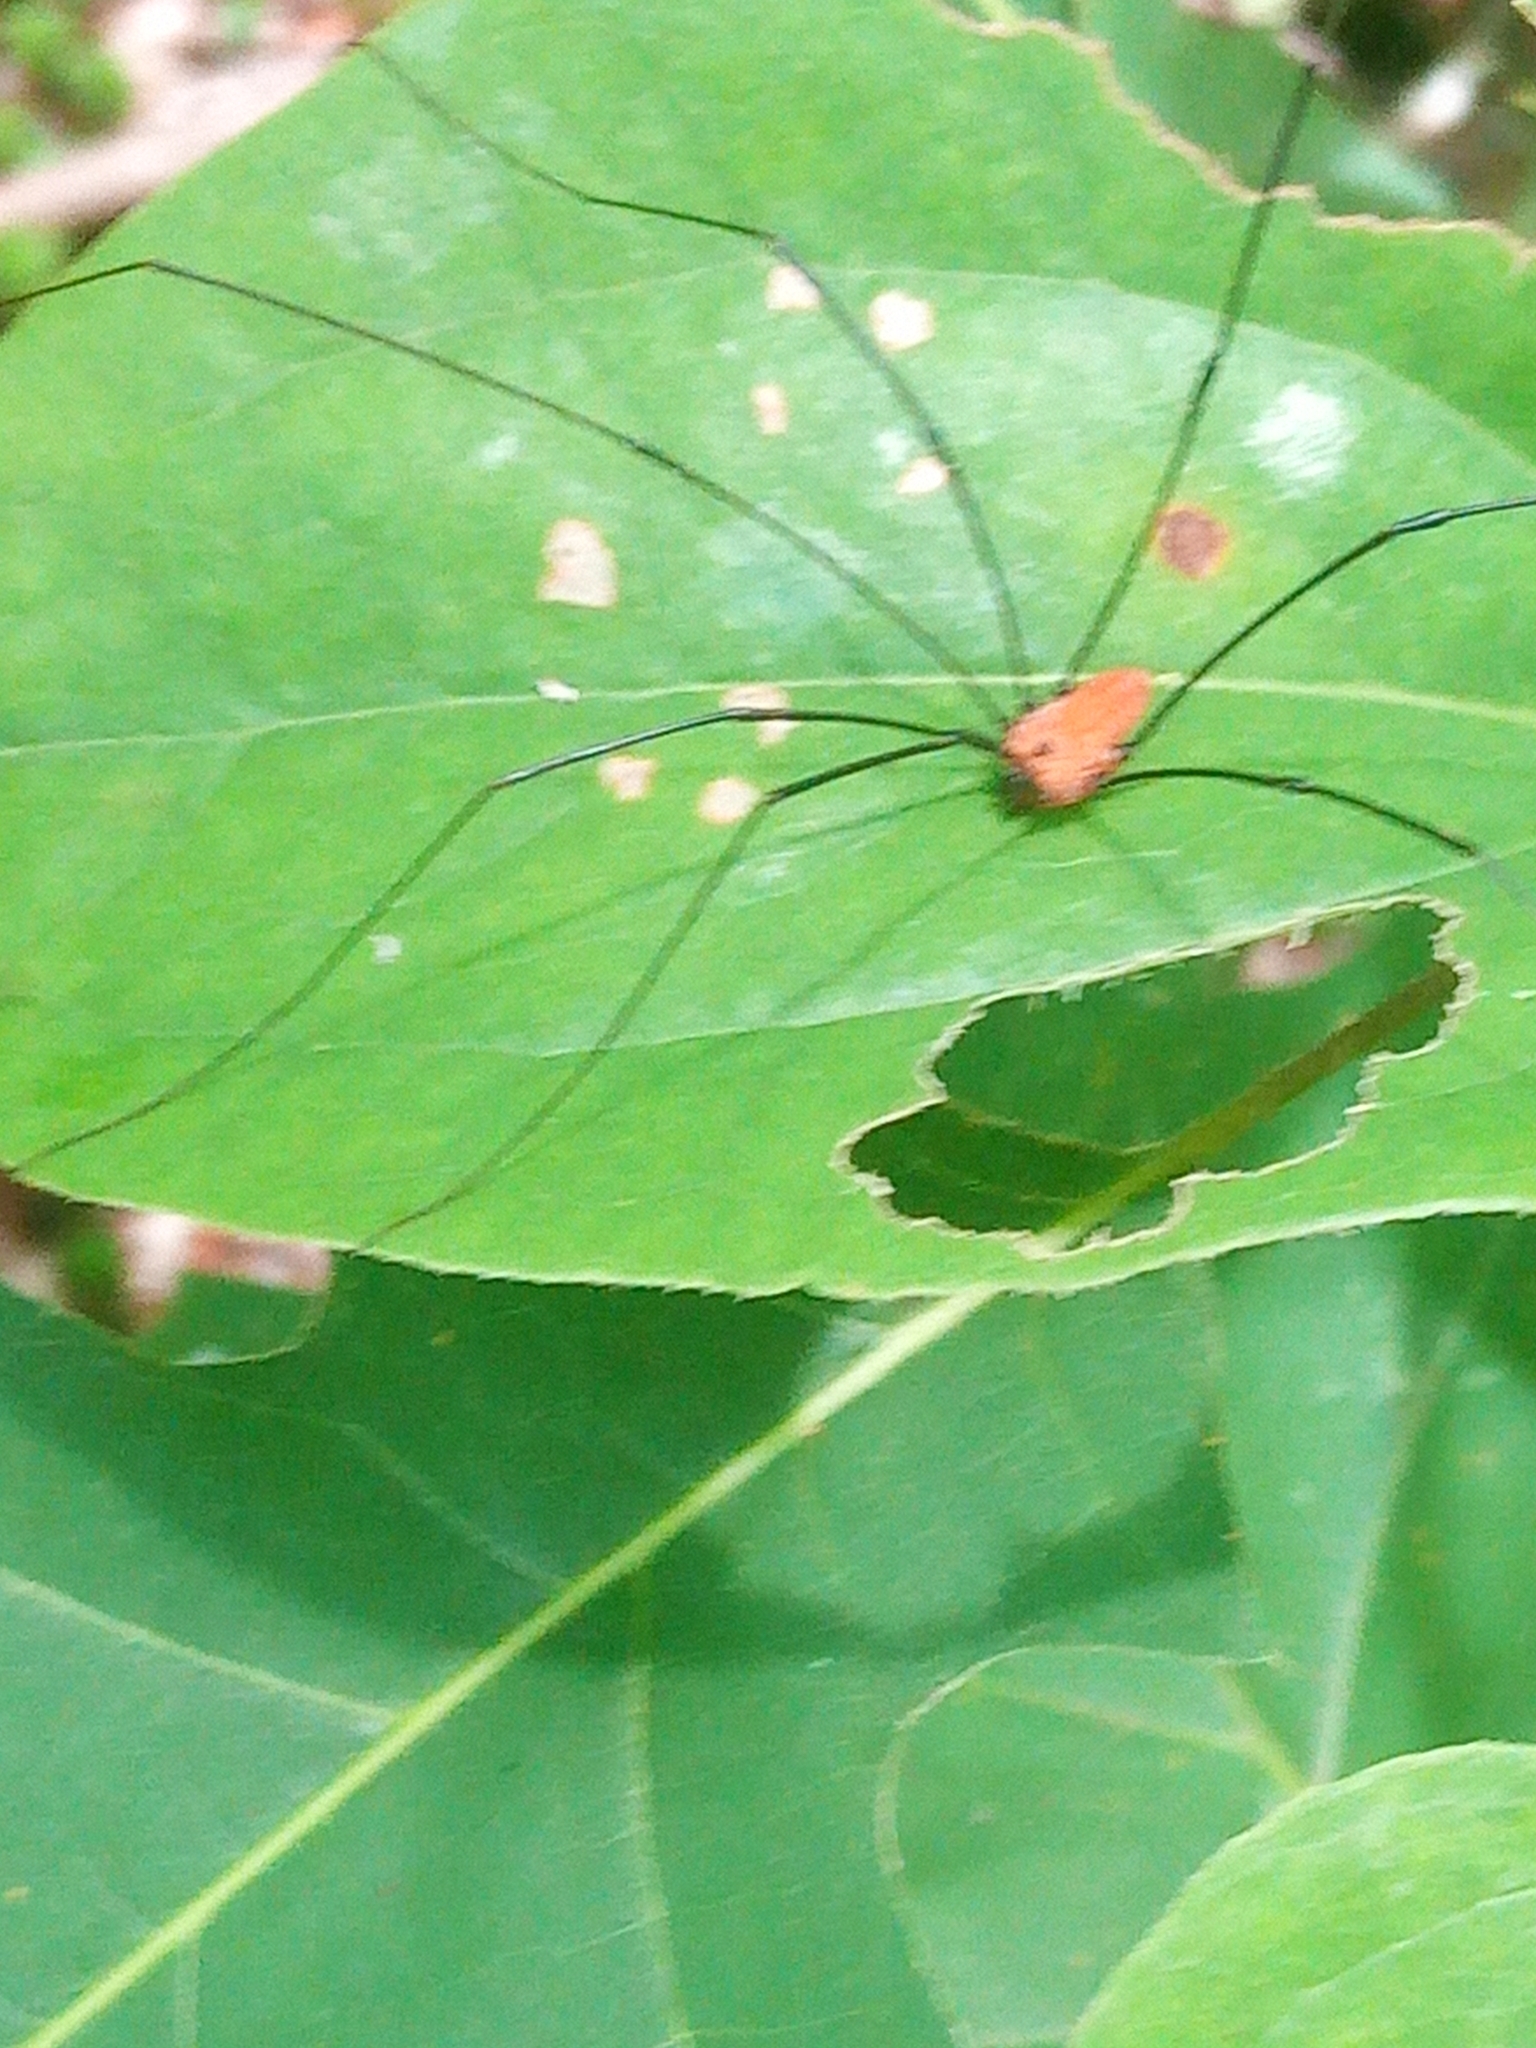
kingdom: Animalia
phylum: Arthropoda
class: Arachnida
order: Opiliones
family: Sclerosomatidae
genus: Leiobunum
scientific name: Leiobunum vittatum
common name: Eastern harvestman
